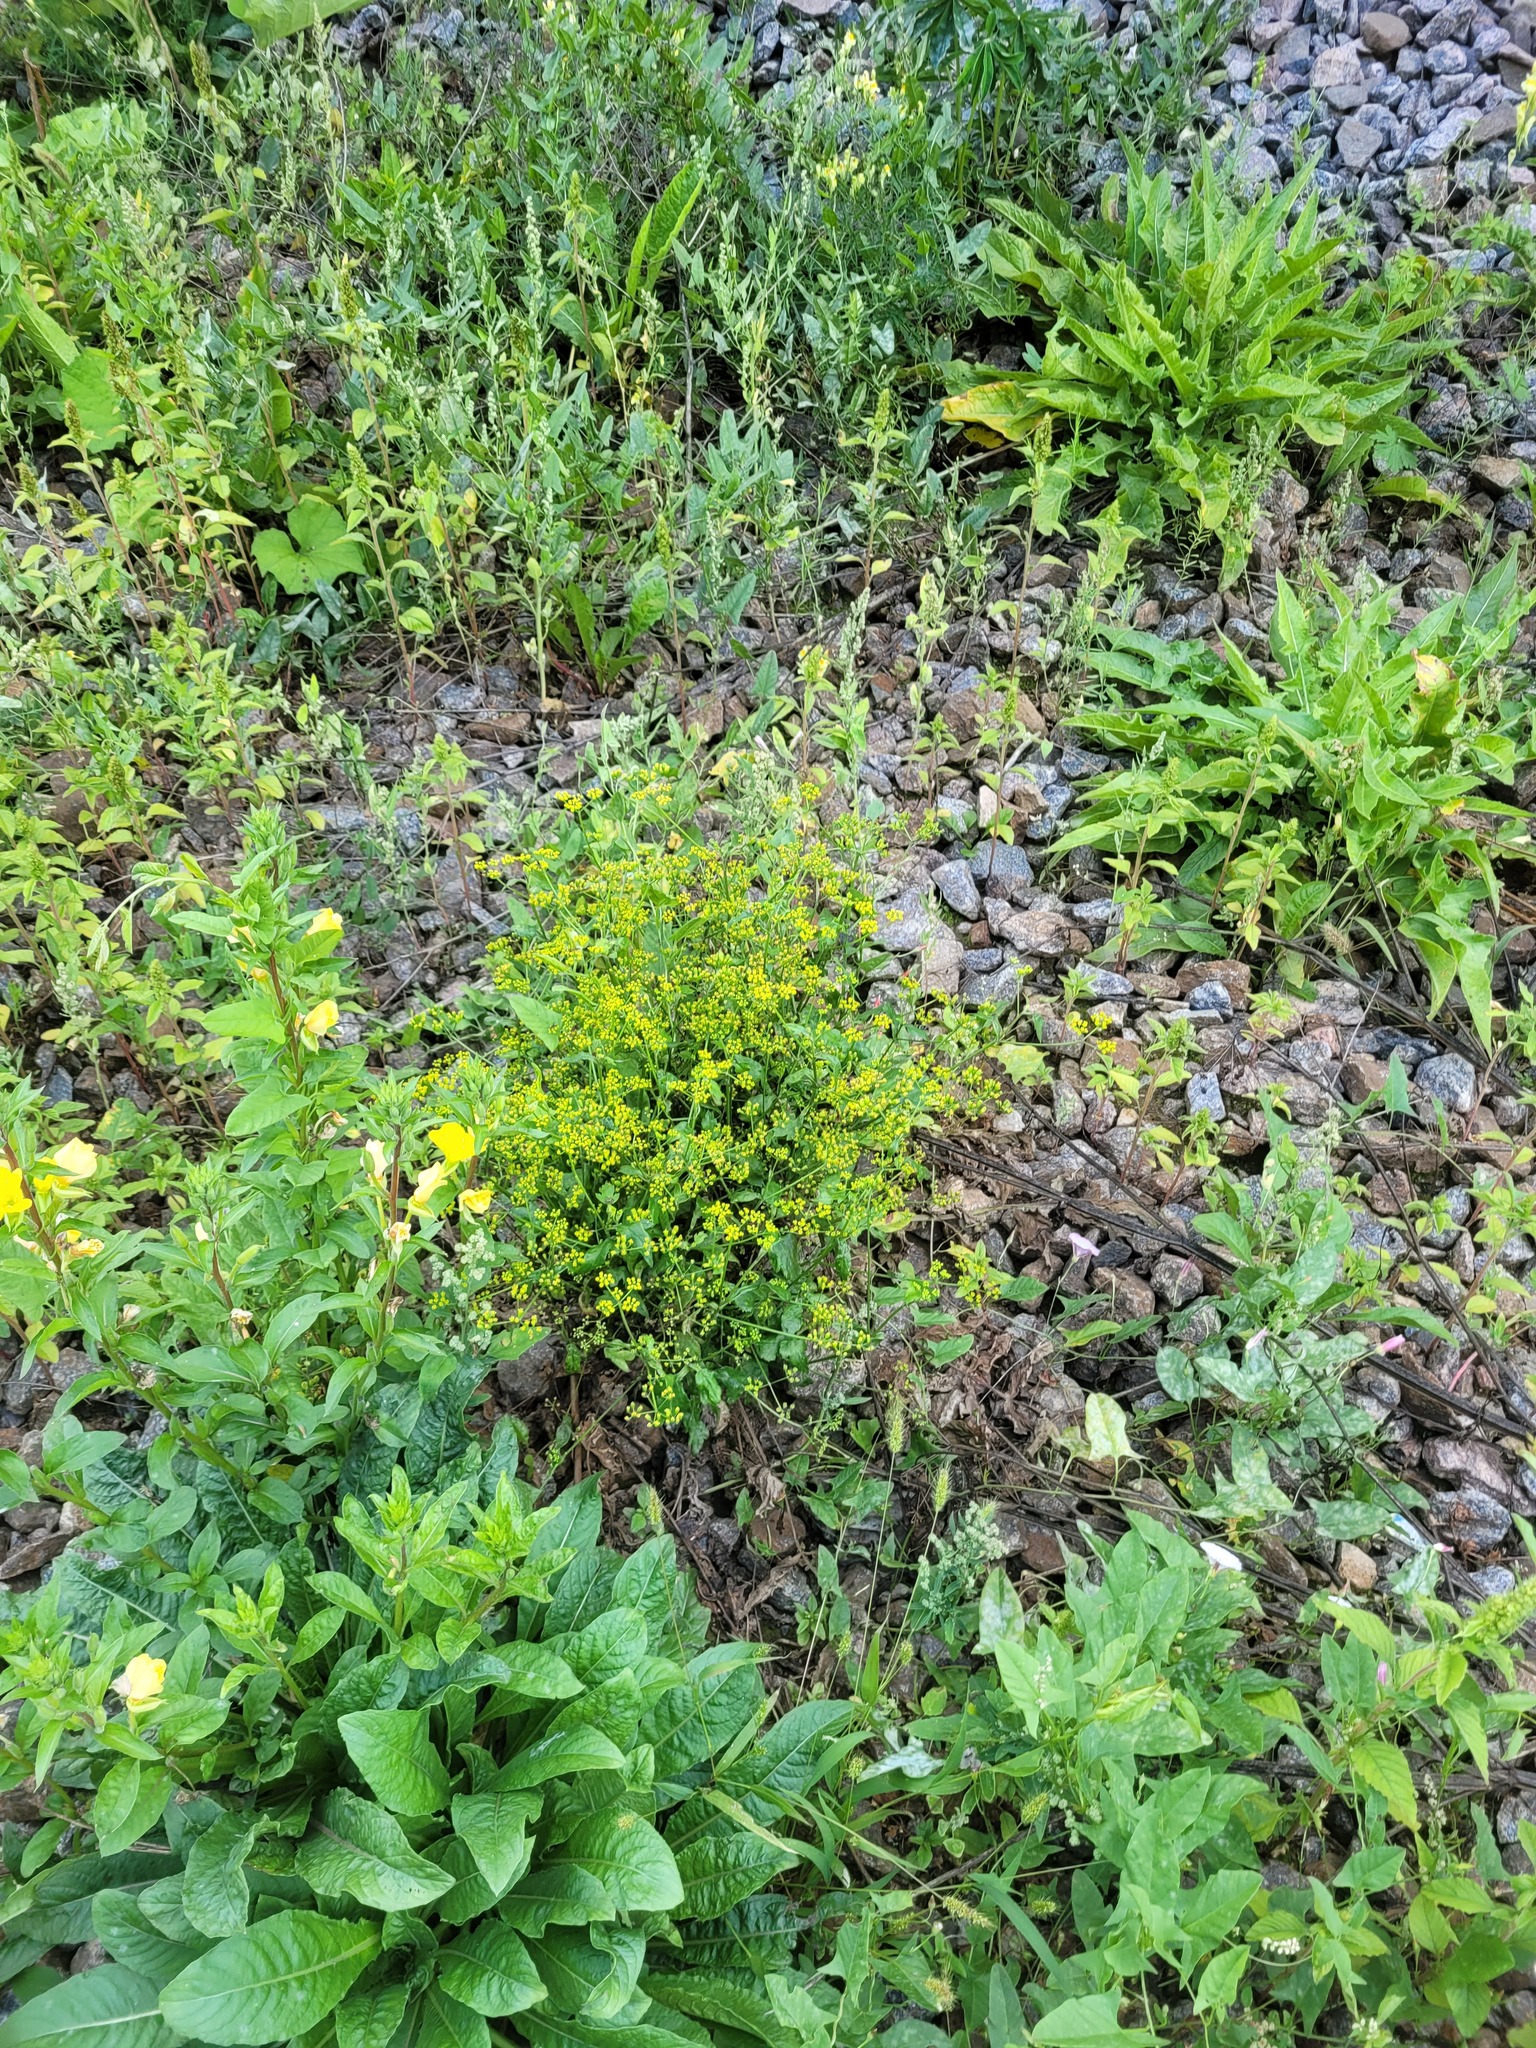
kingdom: Plantae
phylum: Tracheophyta
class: Magnoliopsida
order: Apiales
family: Apiaceae
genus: Pastinaca
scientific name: Pastinaca sativa
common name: Wild parsnip
